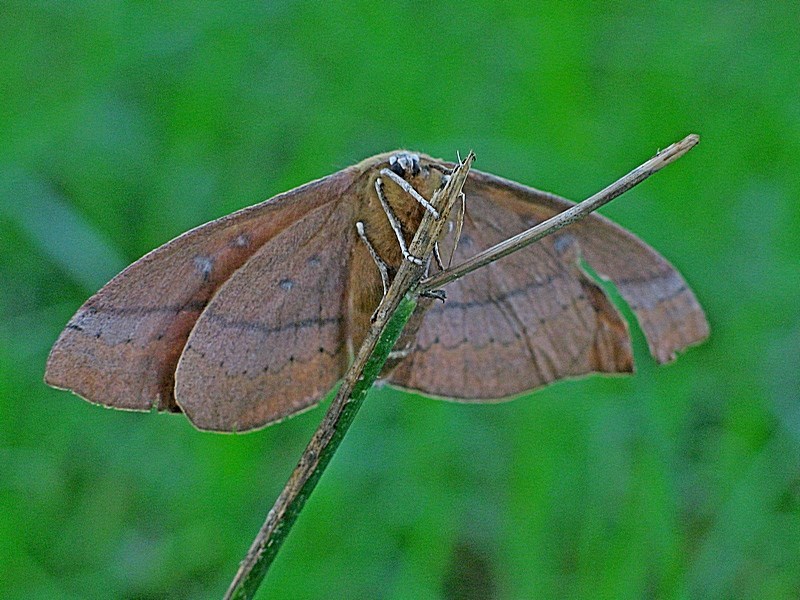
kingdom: Animalia
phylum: Arthropoda
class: Insecta
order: Lepidoptera
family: Anthelidae
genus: Anthela
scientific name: Anthela excellens
